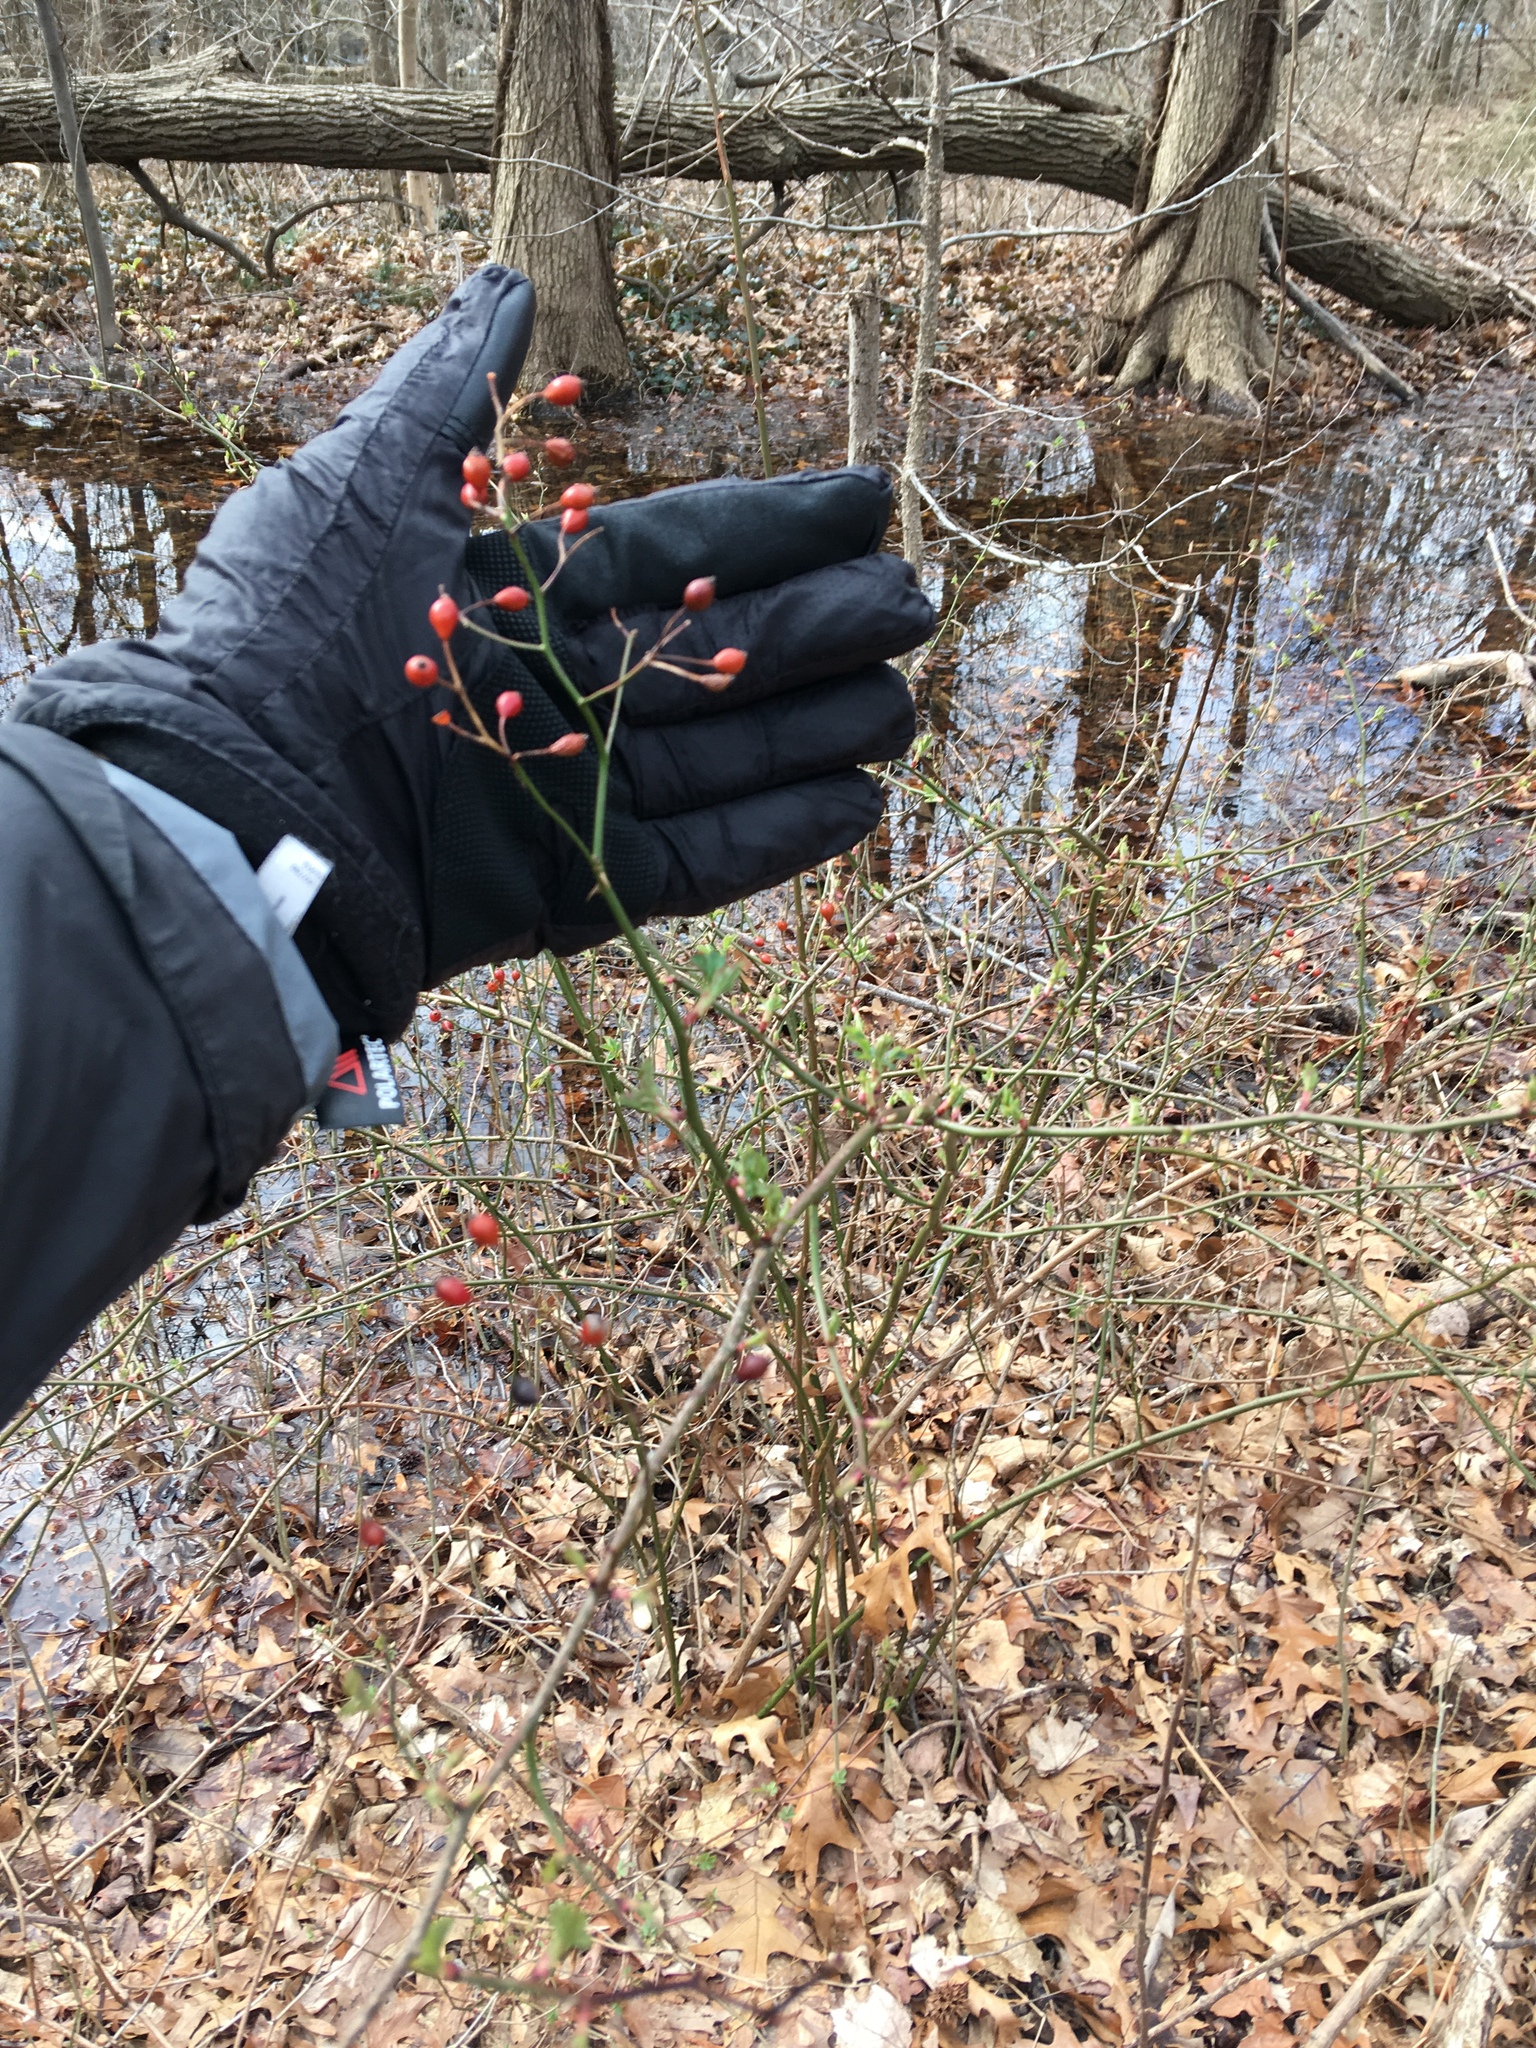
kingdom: Plantae
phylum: Tracheophyta
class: Magnoliopsida
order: Rosales
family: Rosaceae
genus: Rosa
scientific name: Rosa multiflora
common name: Multiflora rose
